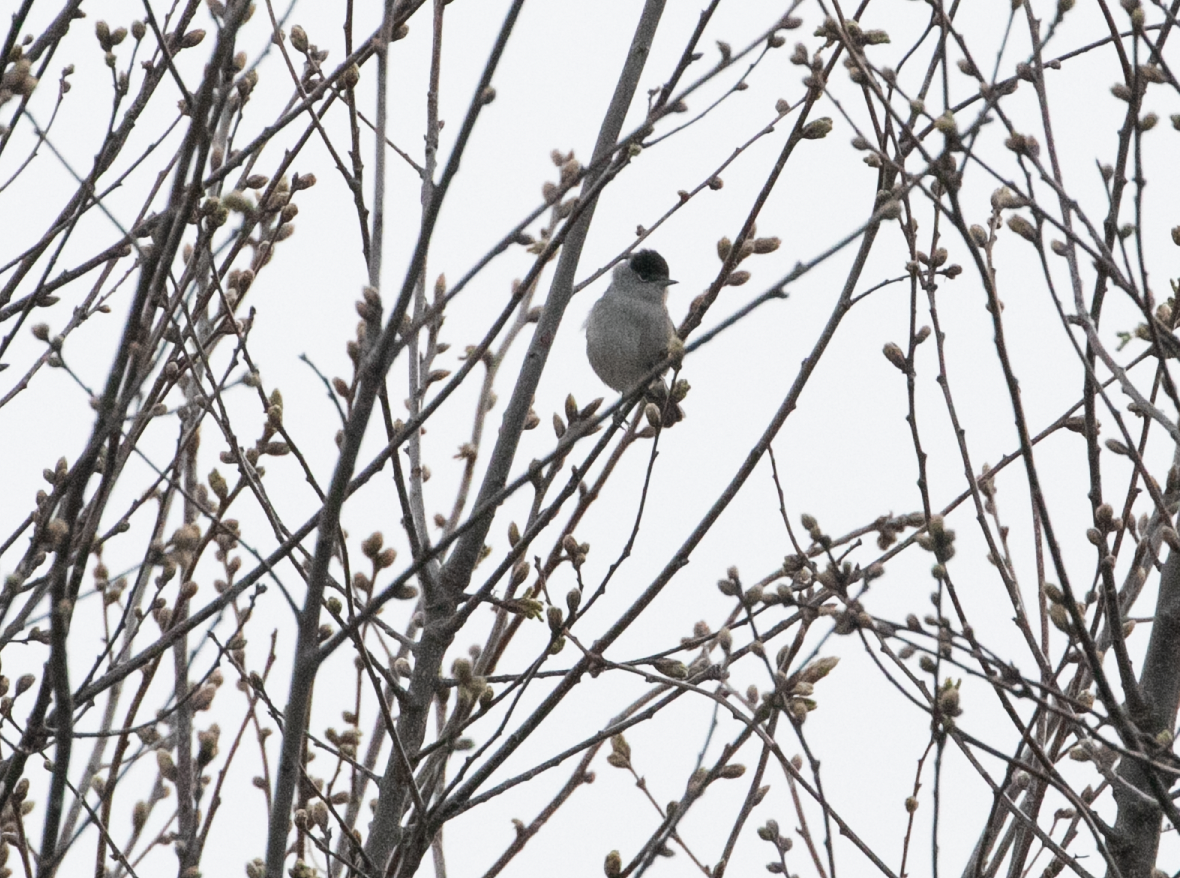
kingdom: Animalia
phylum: Chordata
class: Aves
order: Passeriformes
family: Sylviidae
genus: Sylvia
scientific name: Sylvia atricapilla
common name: Eurasian blackcap
